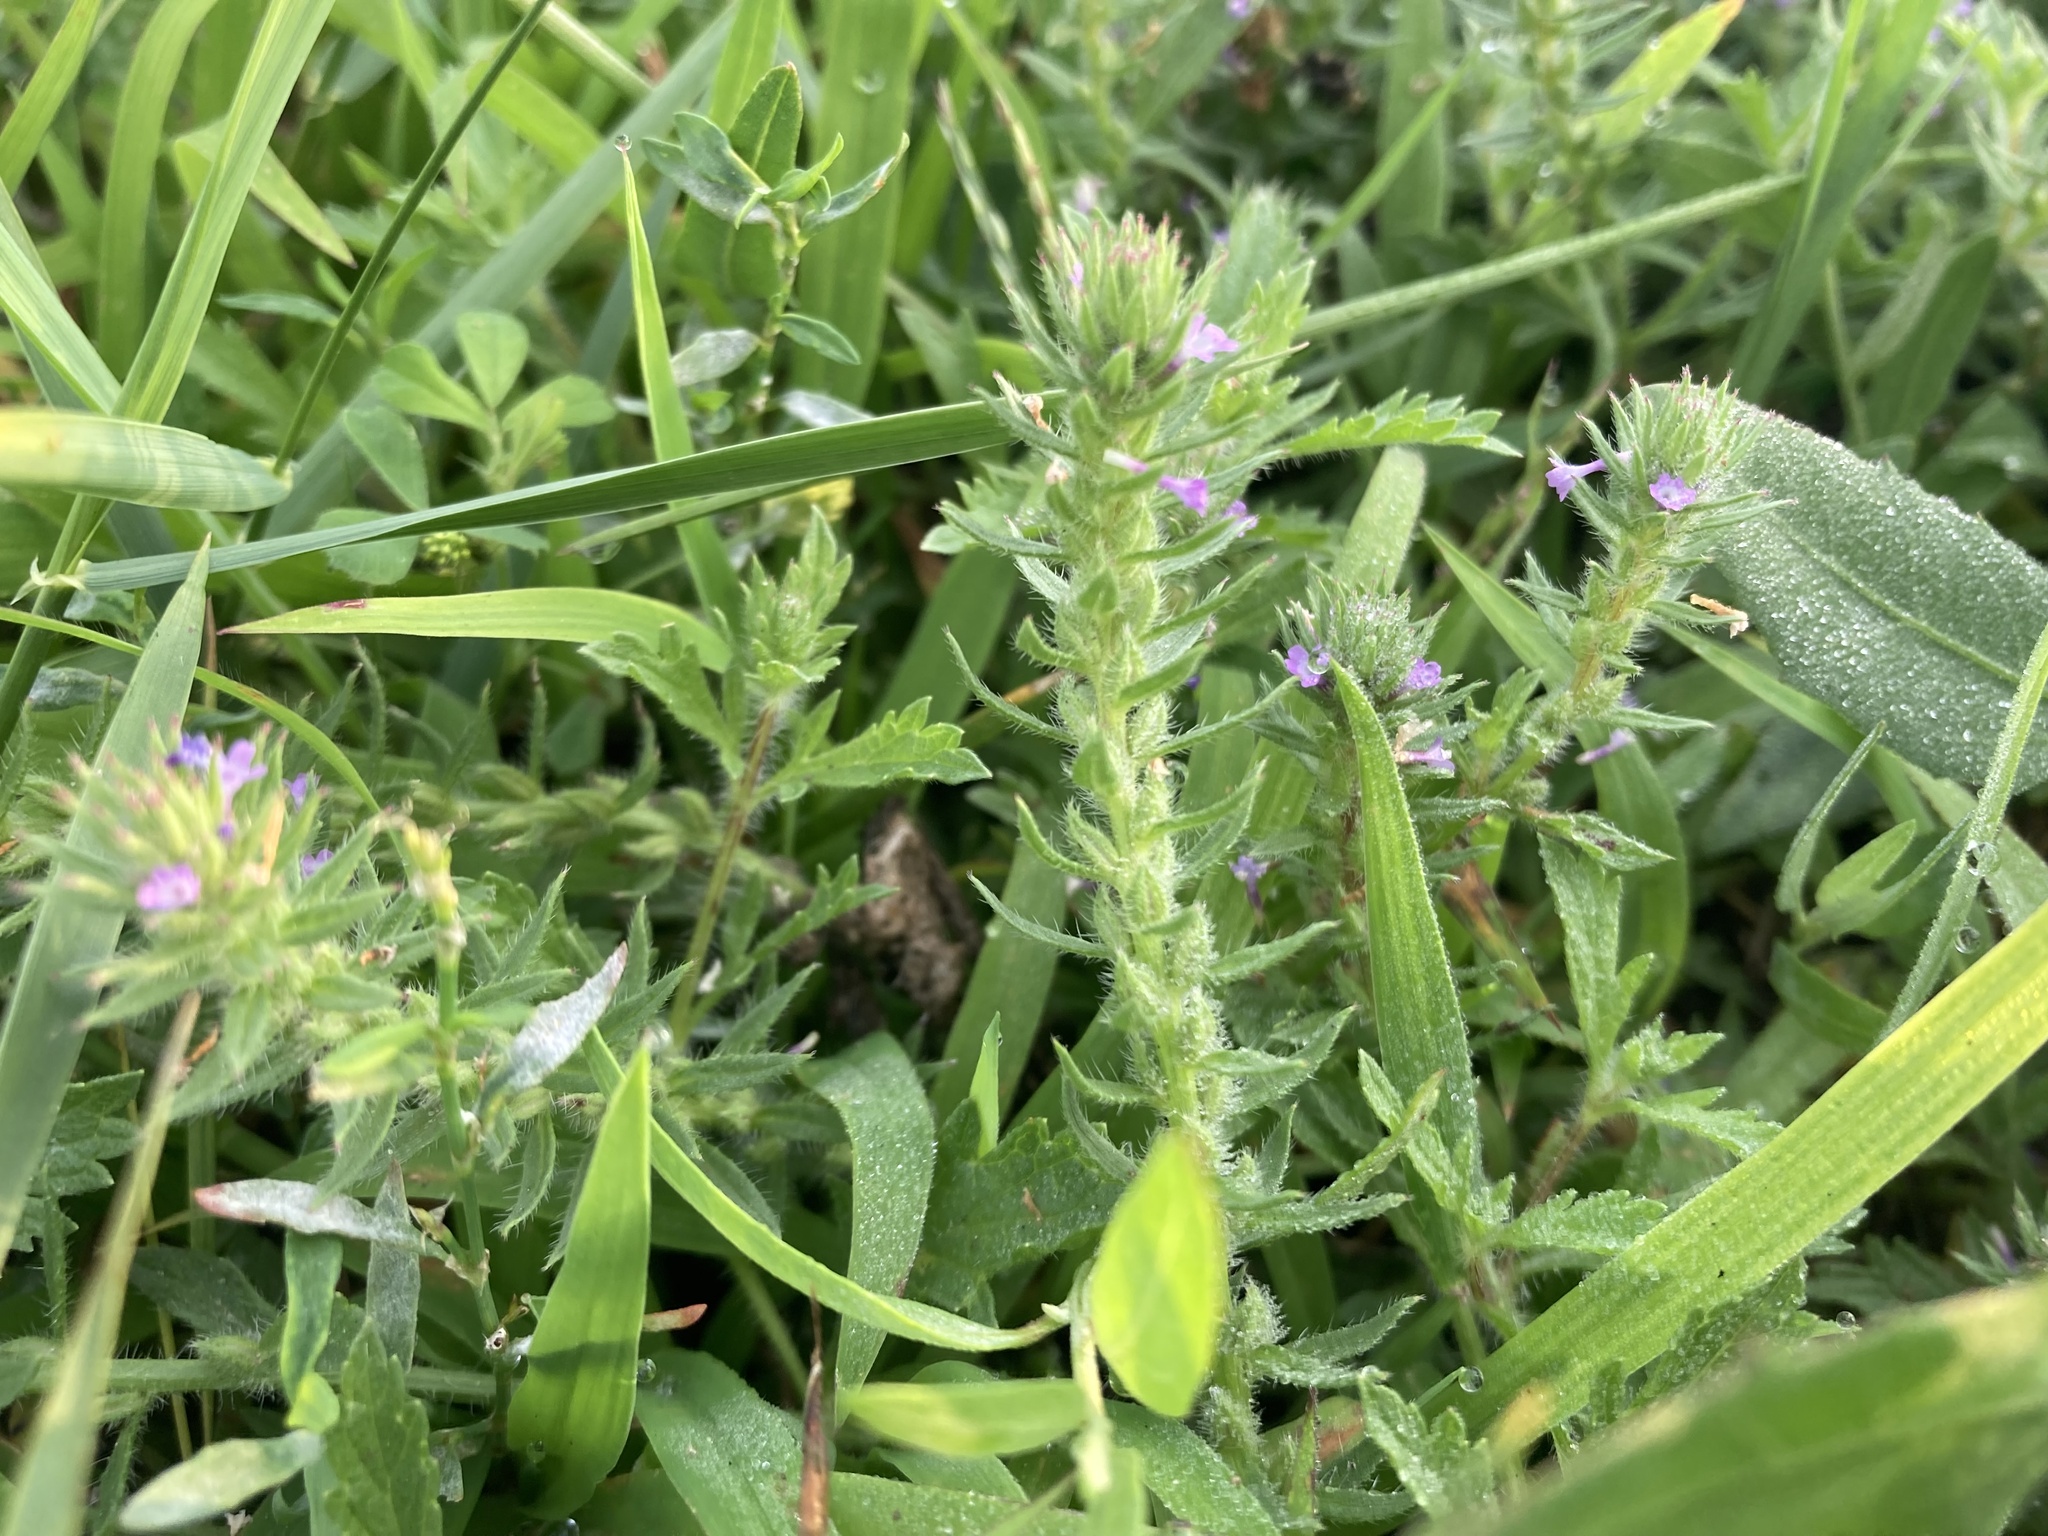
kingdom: Plantae
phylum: Tracheophyta
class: Magnoliopsida
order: Lamiales
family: Verbenaceae
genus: Verbena
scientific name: Verbena bracteata
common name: Bracted vervain
